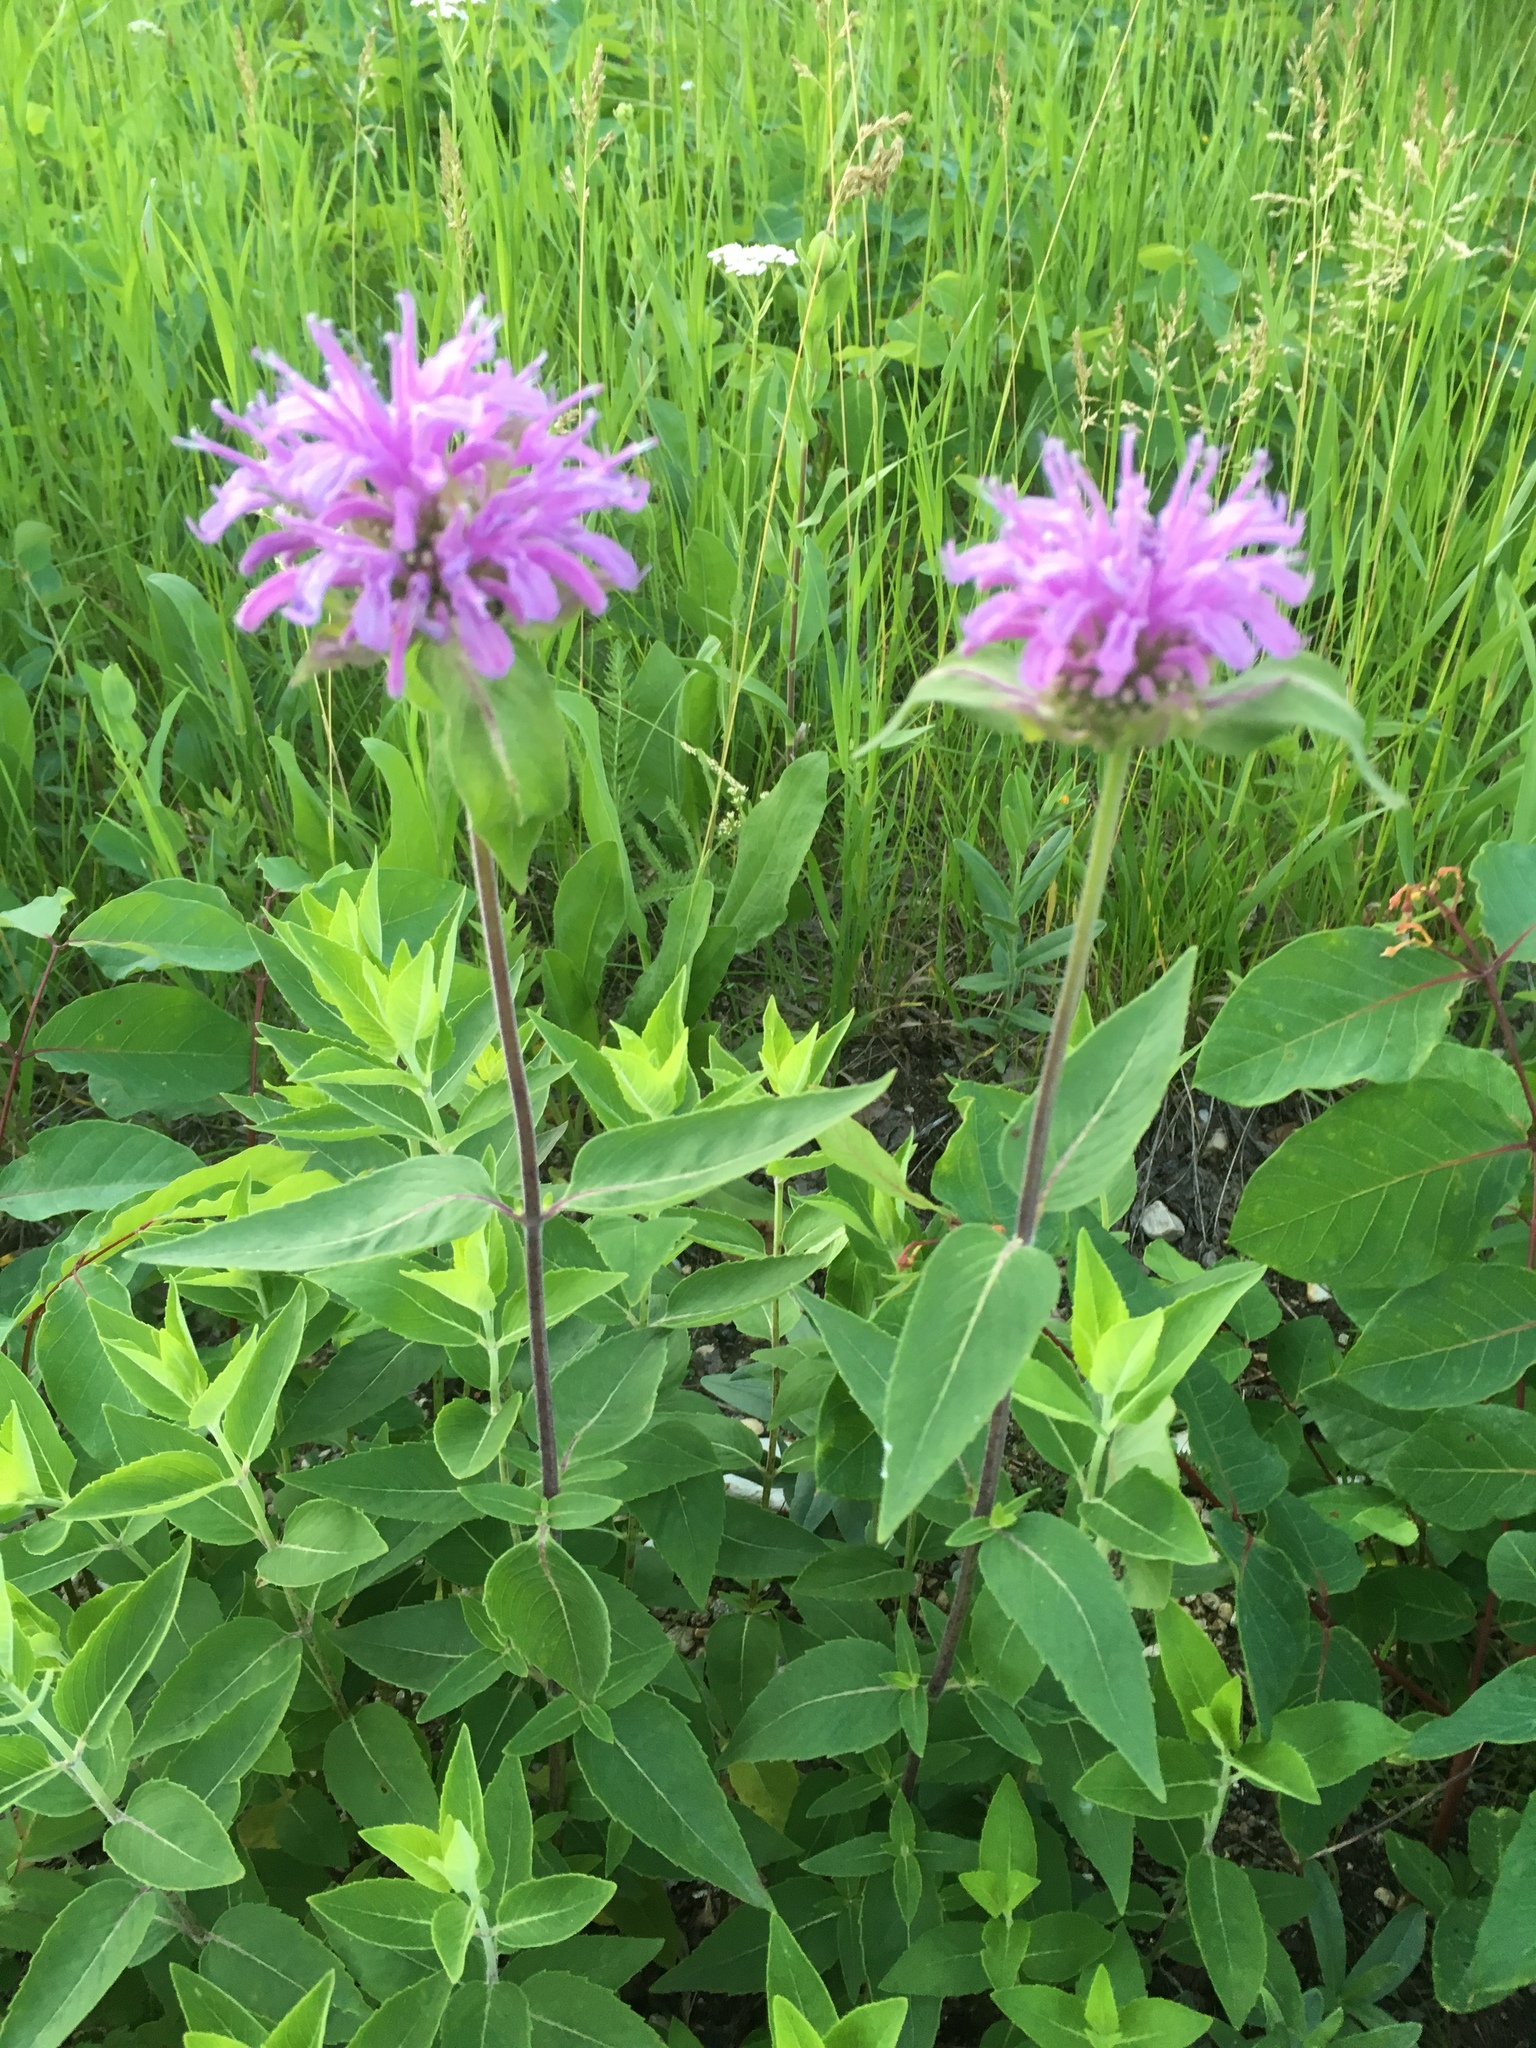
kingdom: Plantae
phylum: Tracheophyta
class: Magnoliopsida
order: Lamiales
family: Lamiaceae
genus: Monarda
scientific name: Monarda fistulosa
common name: Purple beebalm
